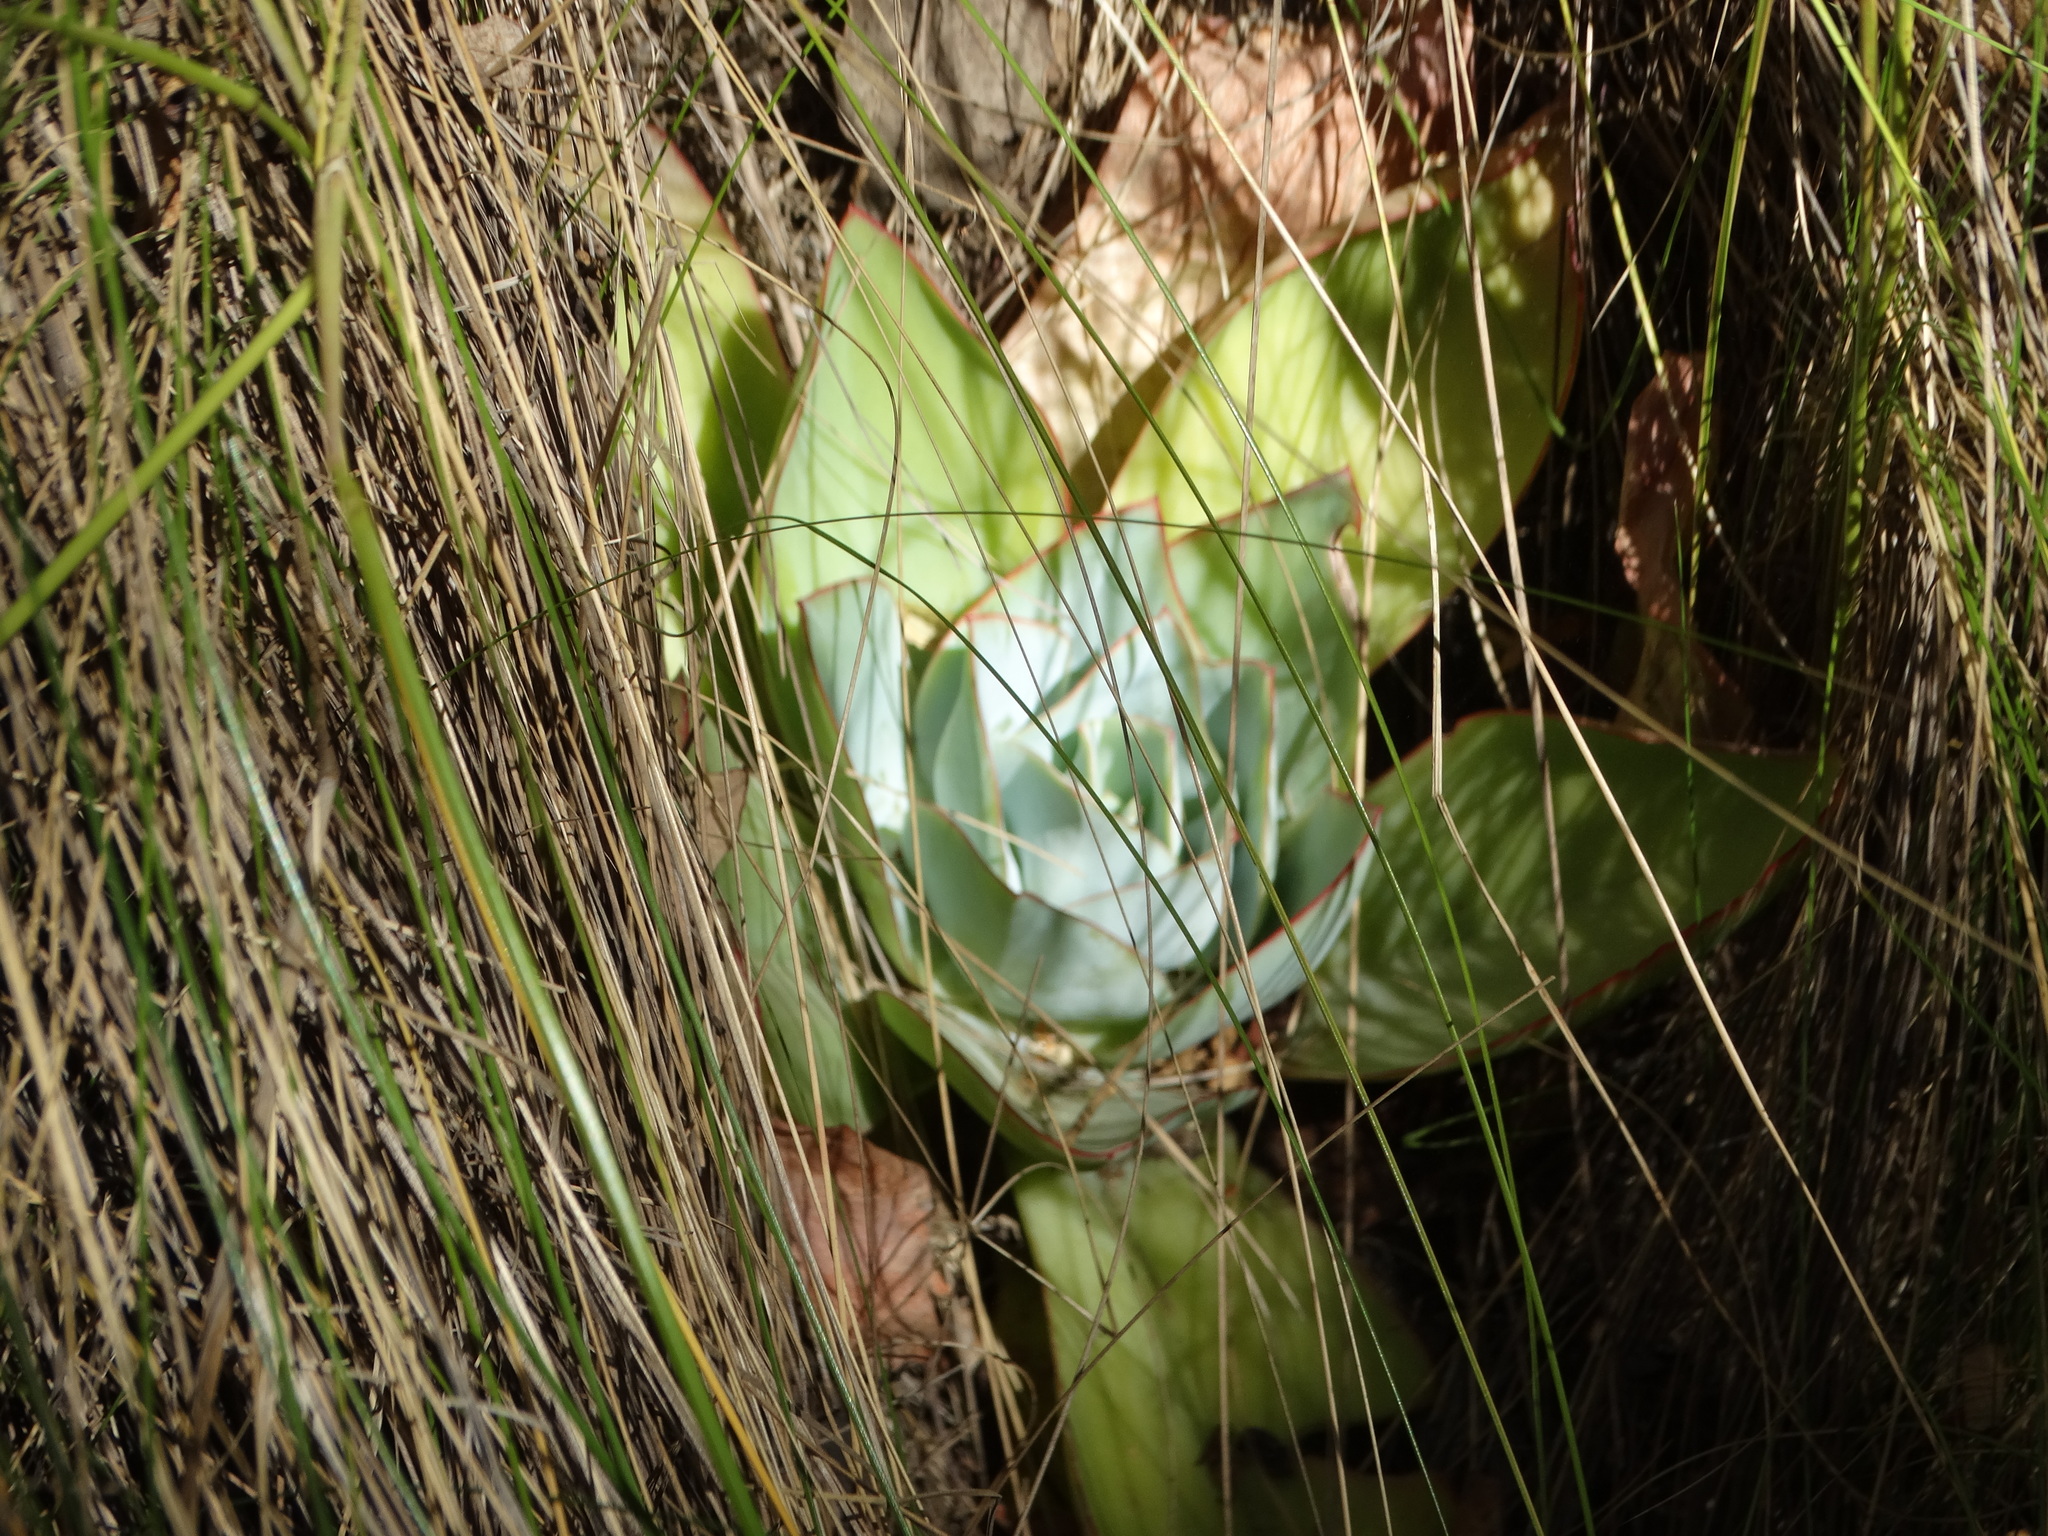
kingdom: Plantae
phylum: Tracheophyta
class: Magnoliopsida
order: Saxifragales
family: Crassulaceae
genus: Echeveria
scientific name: Echeveria subrigida
